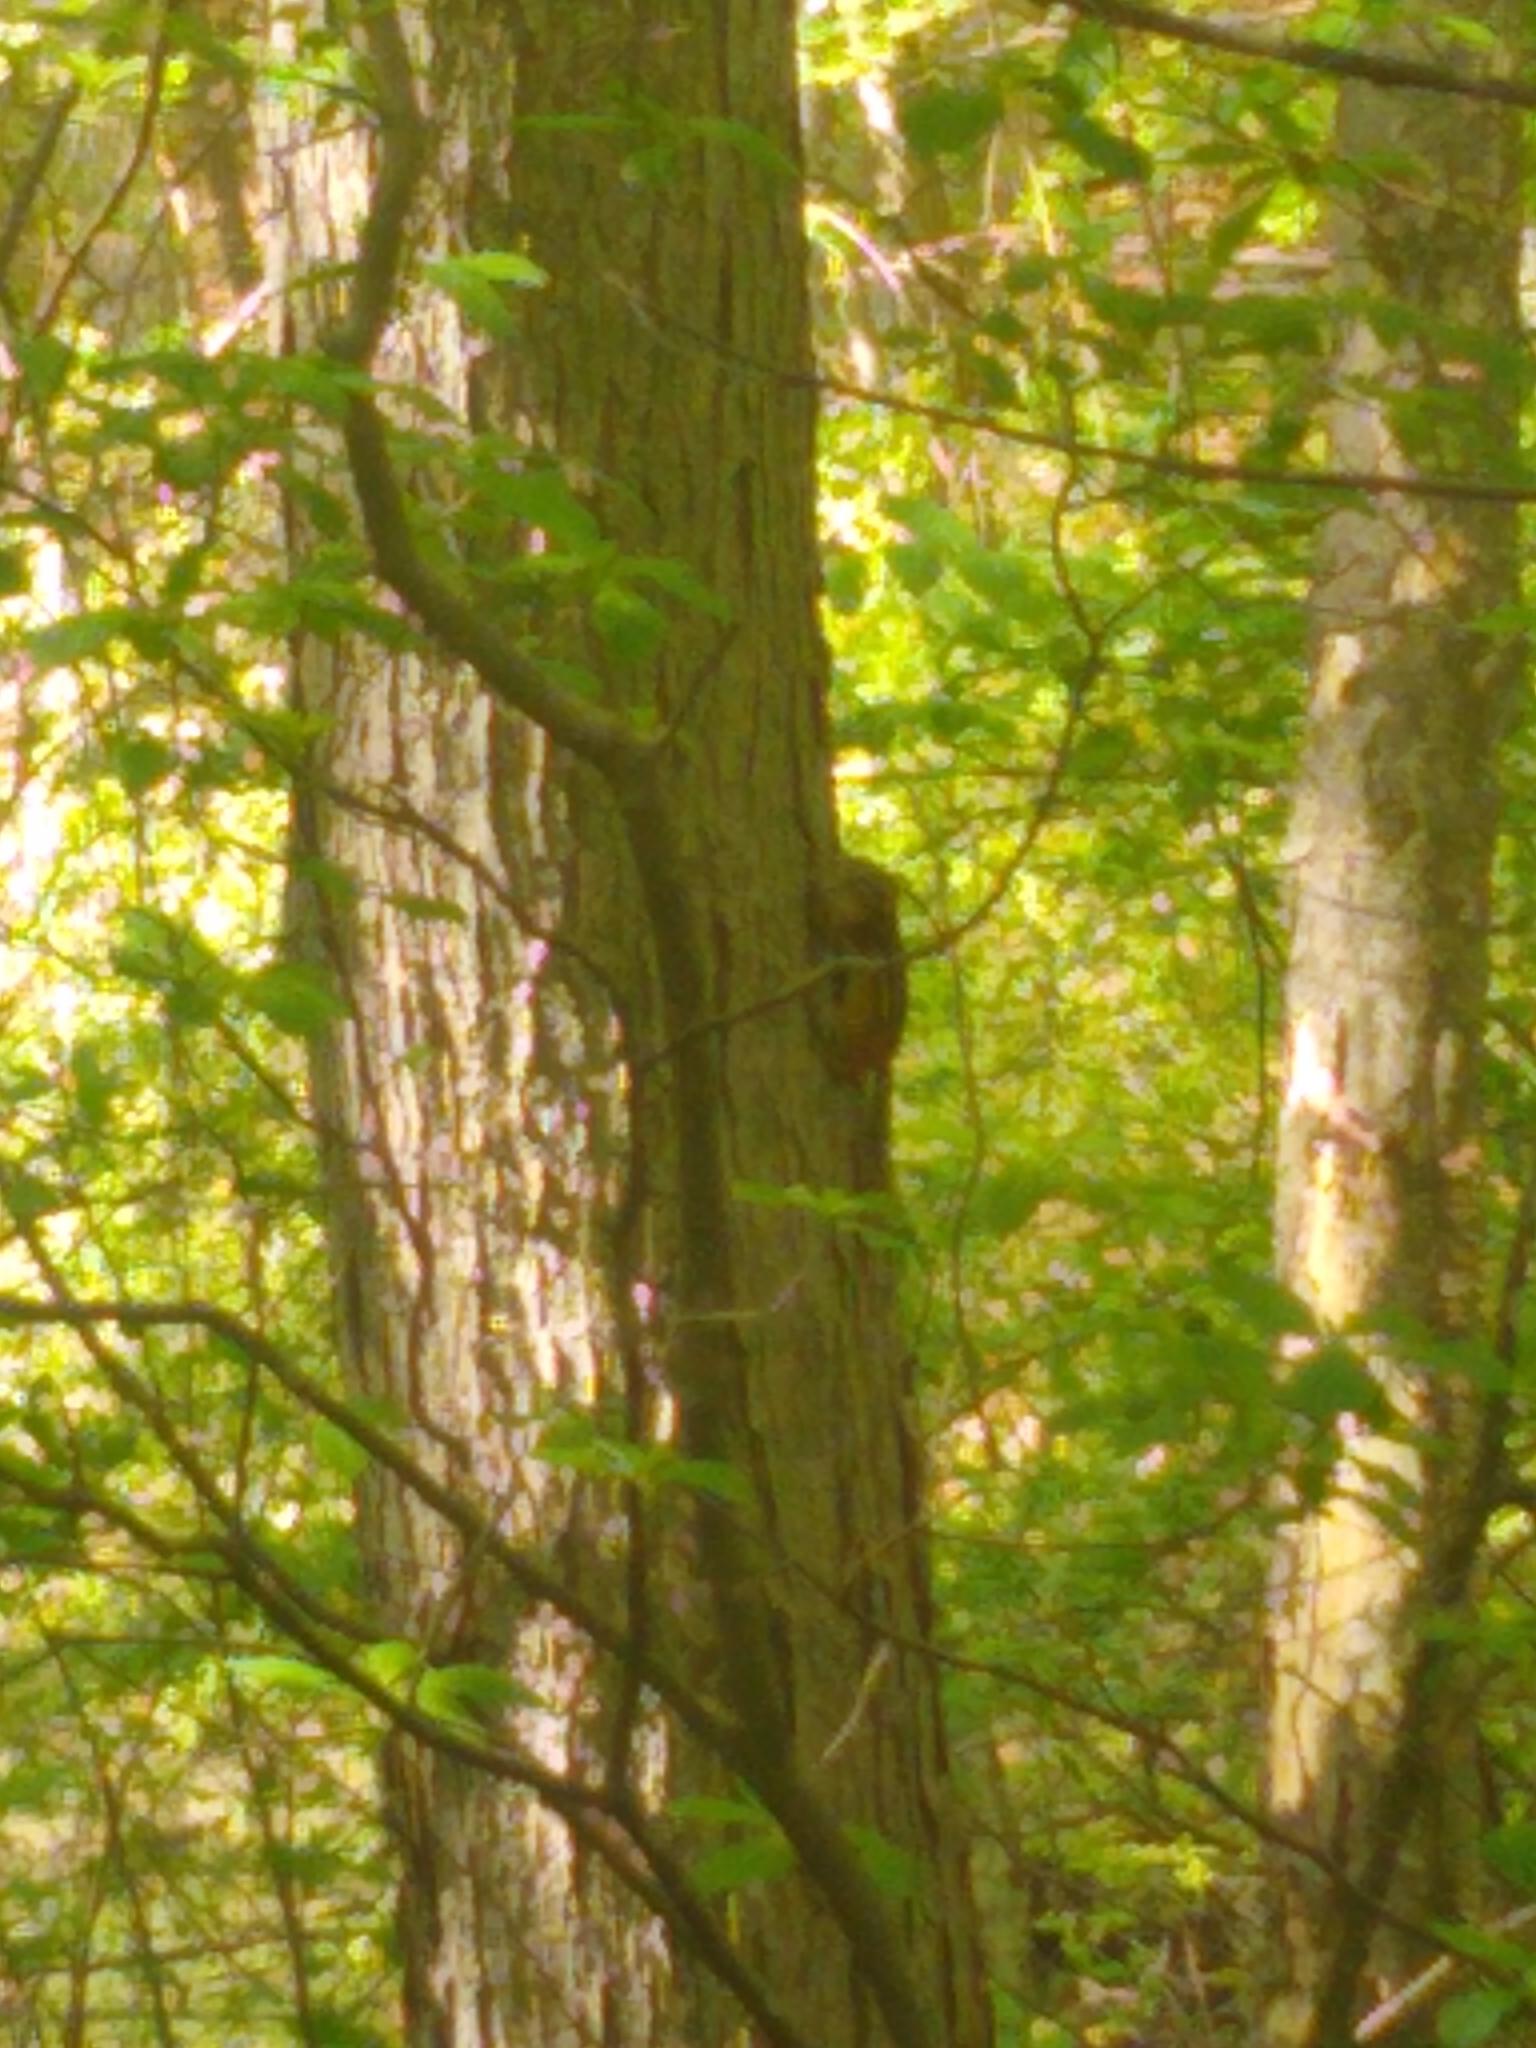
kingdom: Animalia
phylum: Chordata
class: Mammalia
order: Rodentia
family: Sciuridae
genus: Tamias
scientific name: Tamias striatus
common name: Eastern chipmunk
